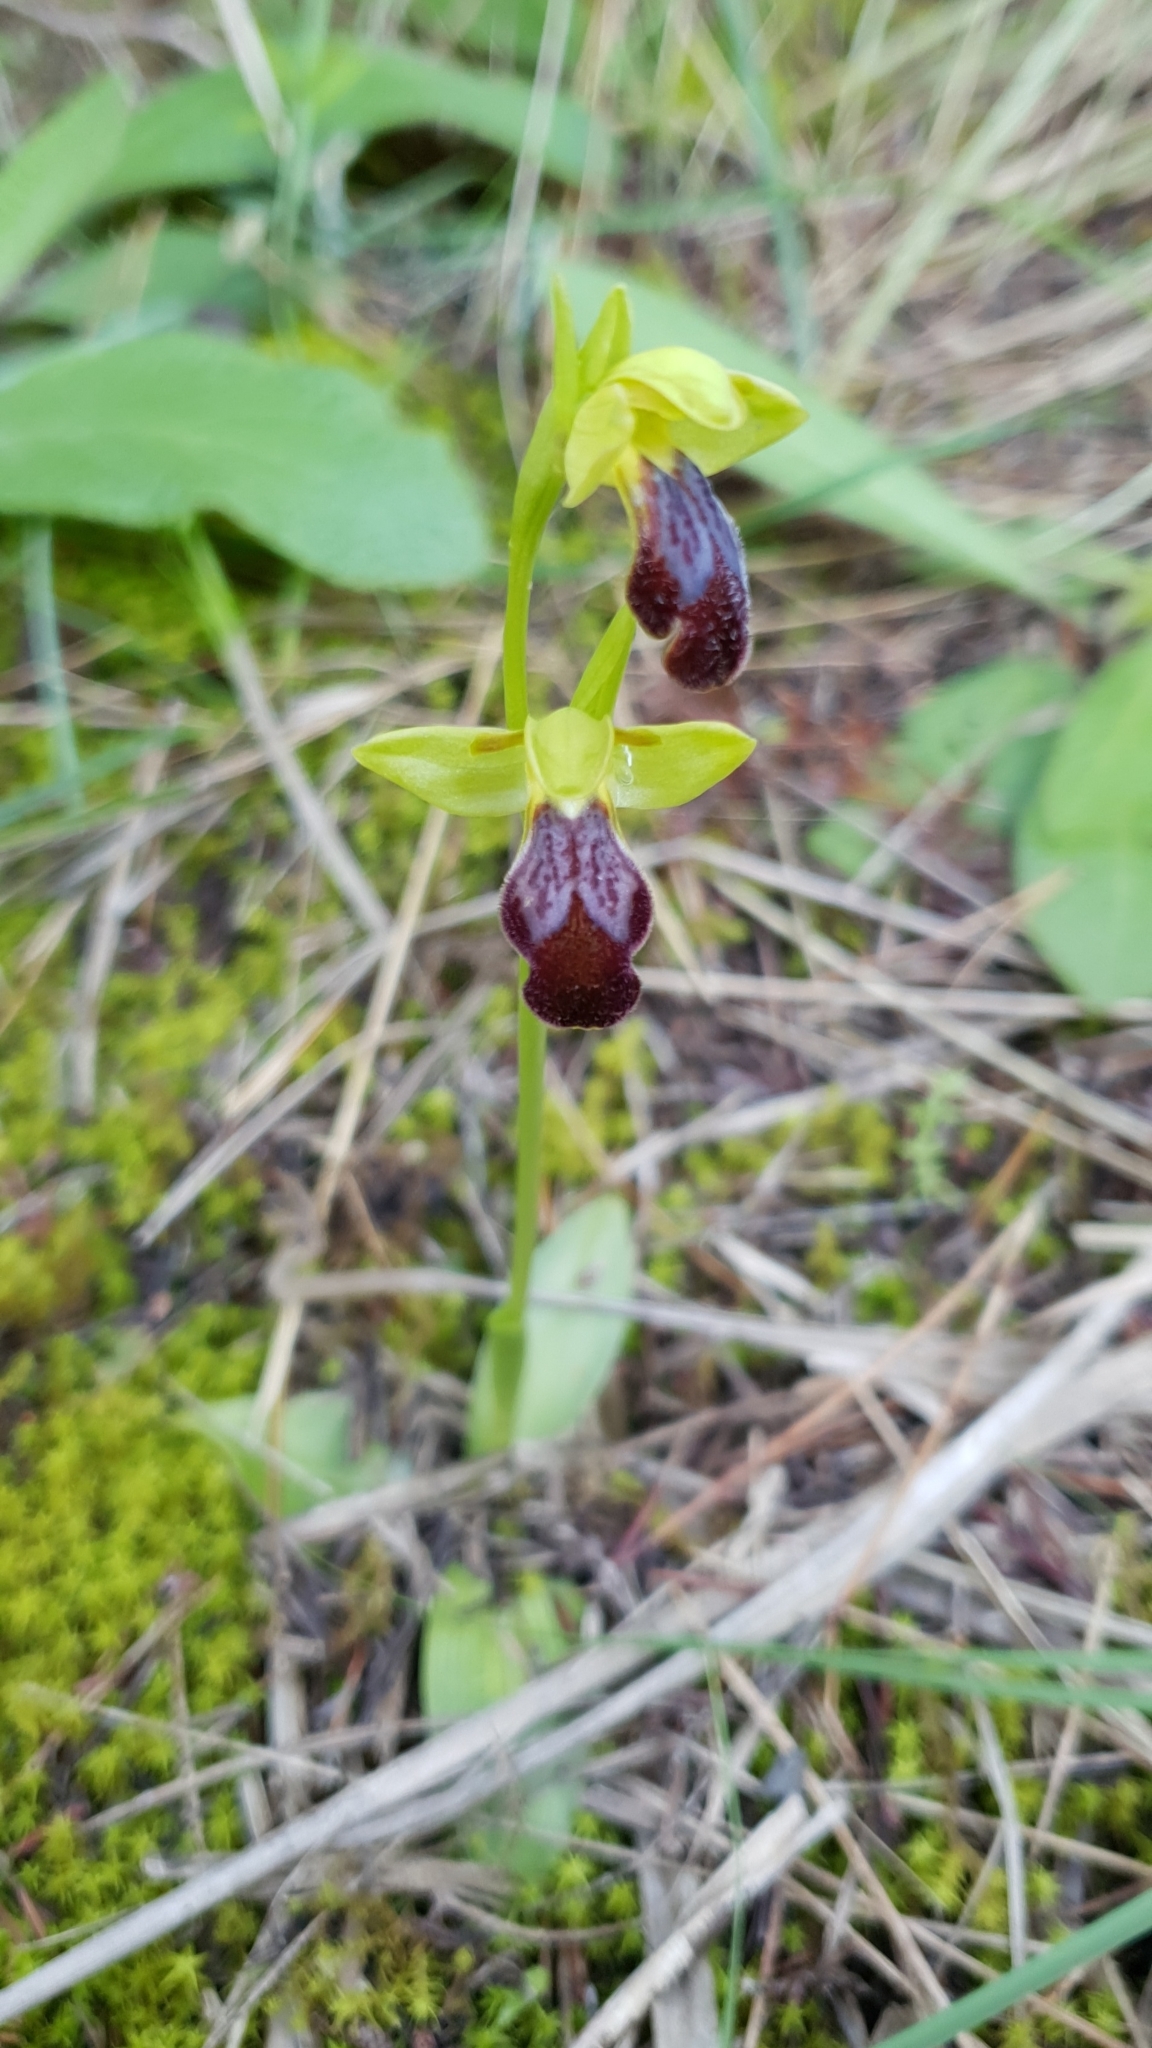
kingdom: Plantae
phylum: Tracheophyta
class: Liliopsida
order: Asparagales
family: Orchidaceae
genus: Ophrys
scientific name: Ophrys fusca
